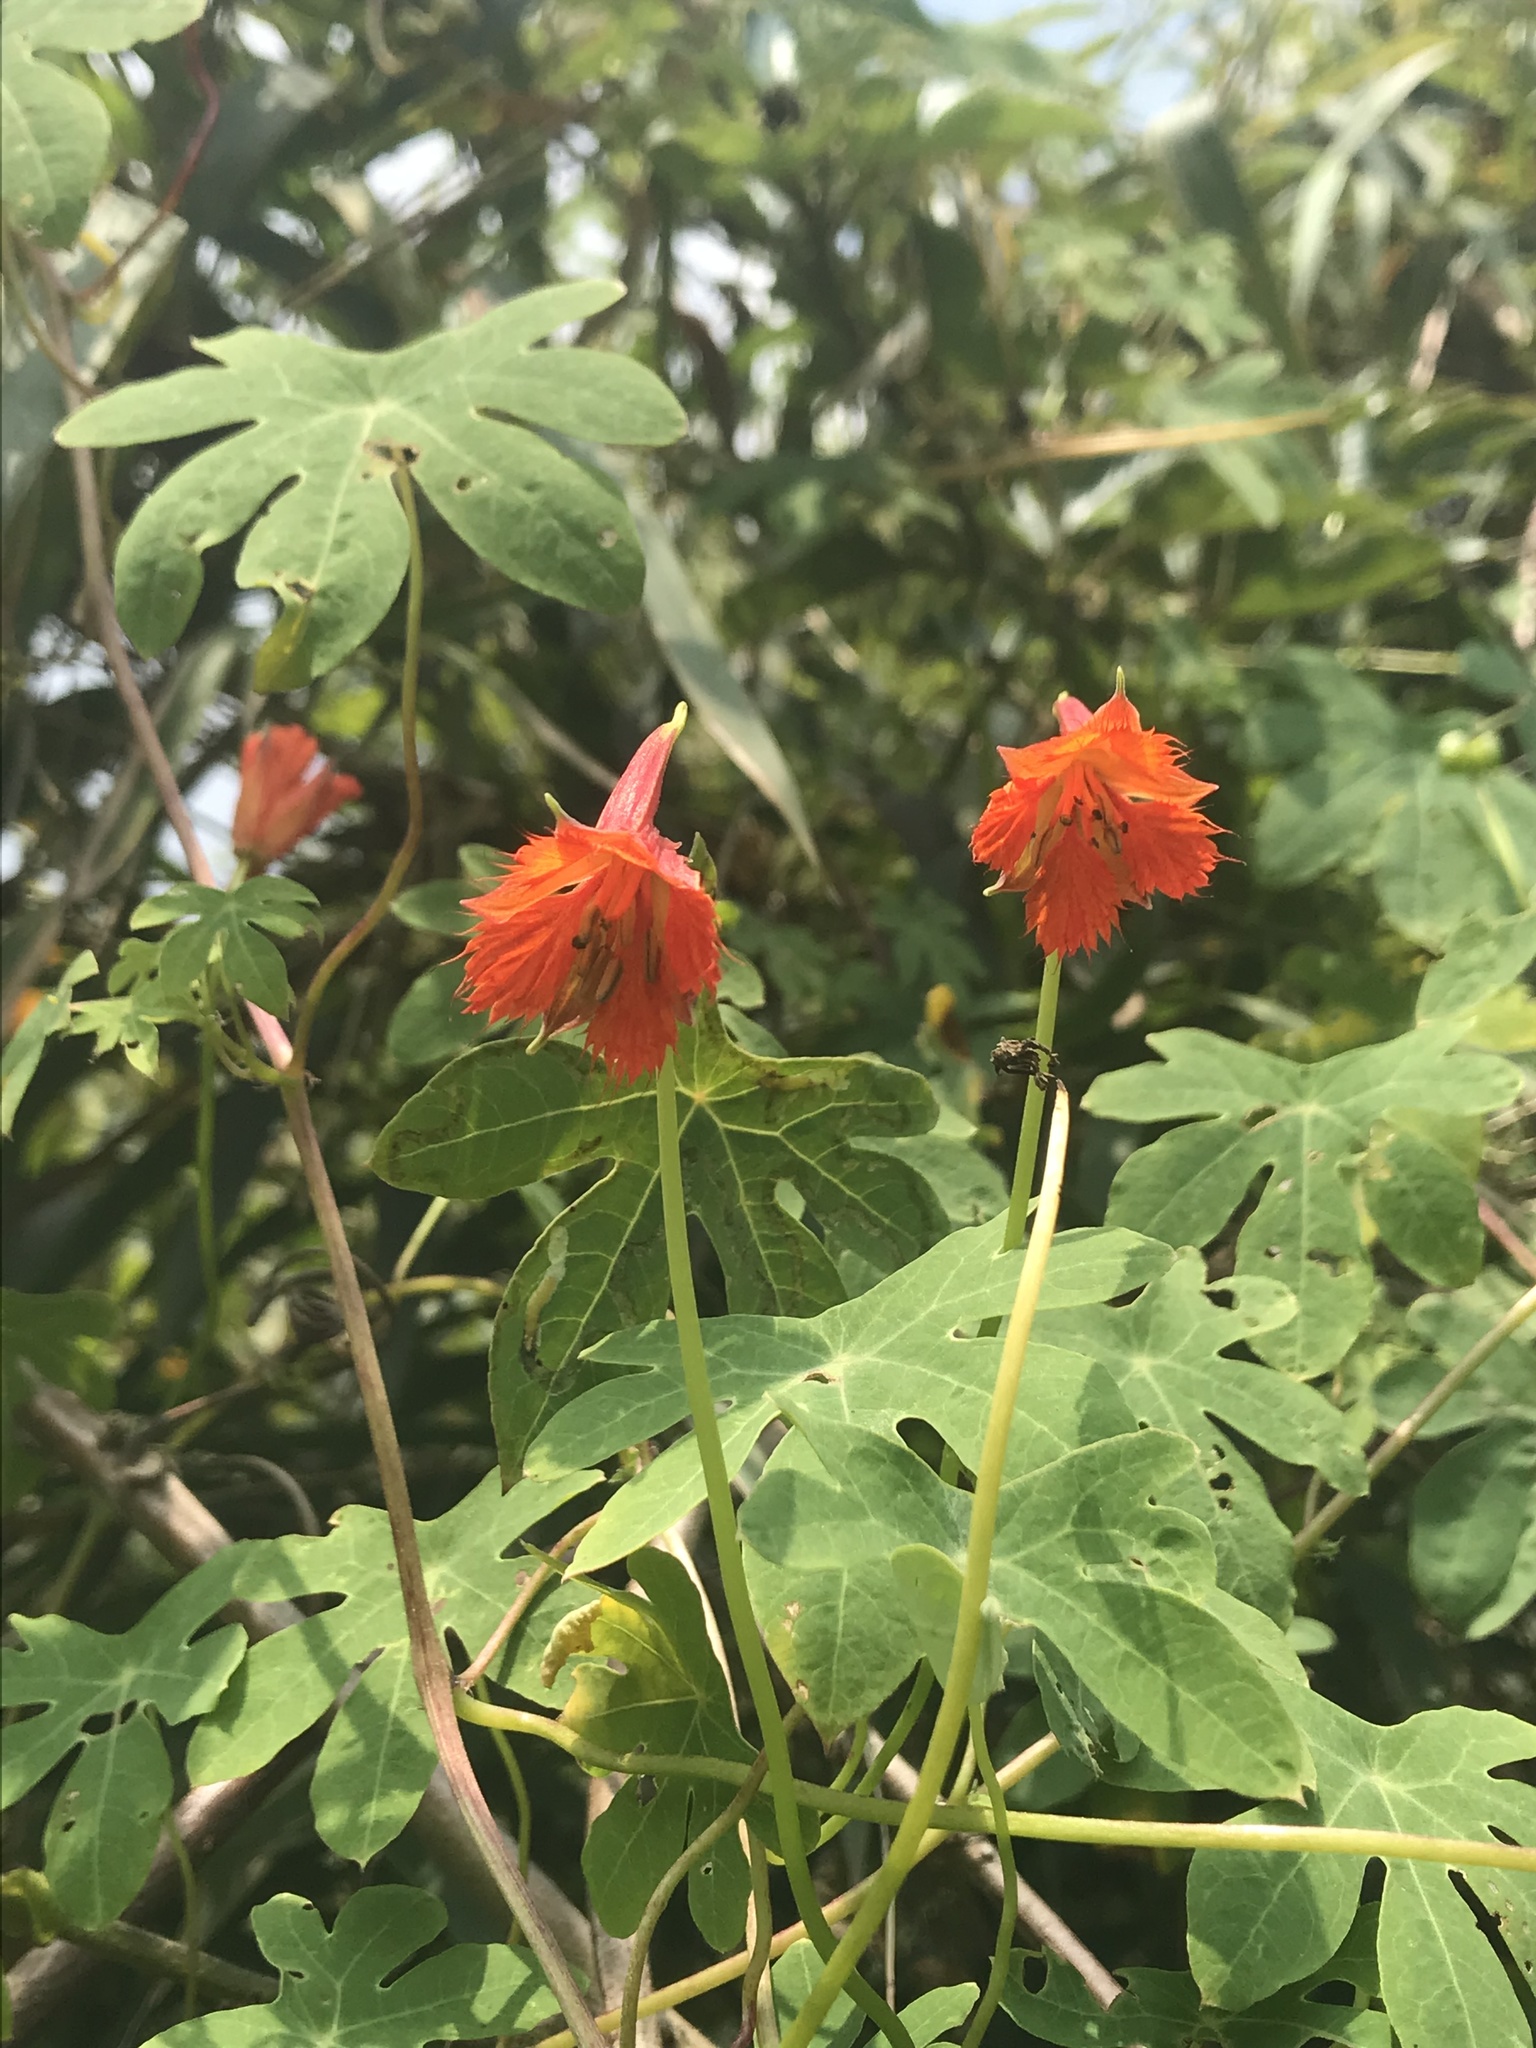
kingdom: Plantae
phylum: Tracheophyta
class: Magnoliopsida
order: Brassicales
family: Tropaeolaceae
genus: Tropaeolum
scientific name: Tropaeolum smithii
